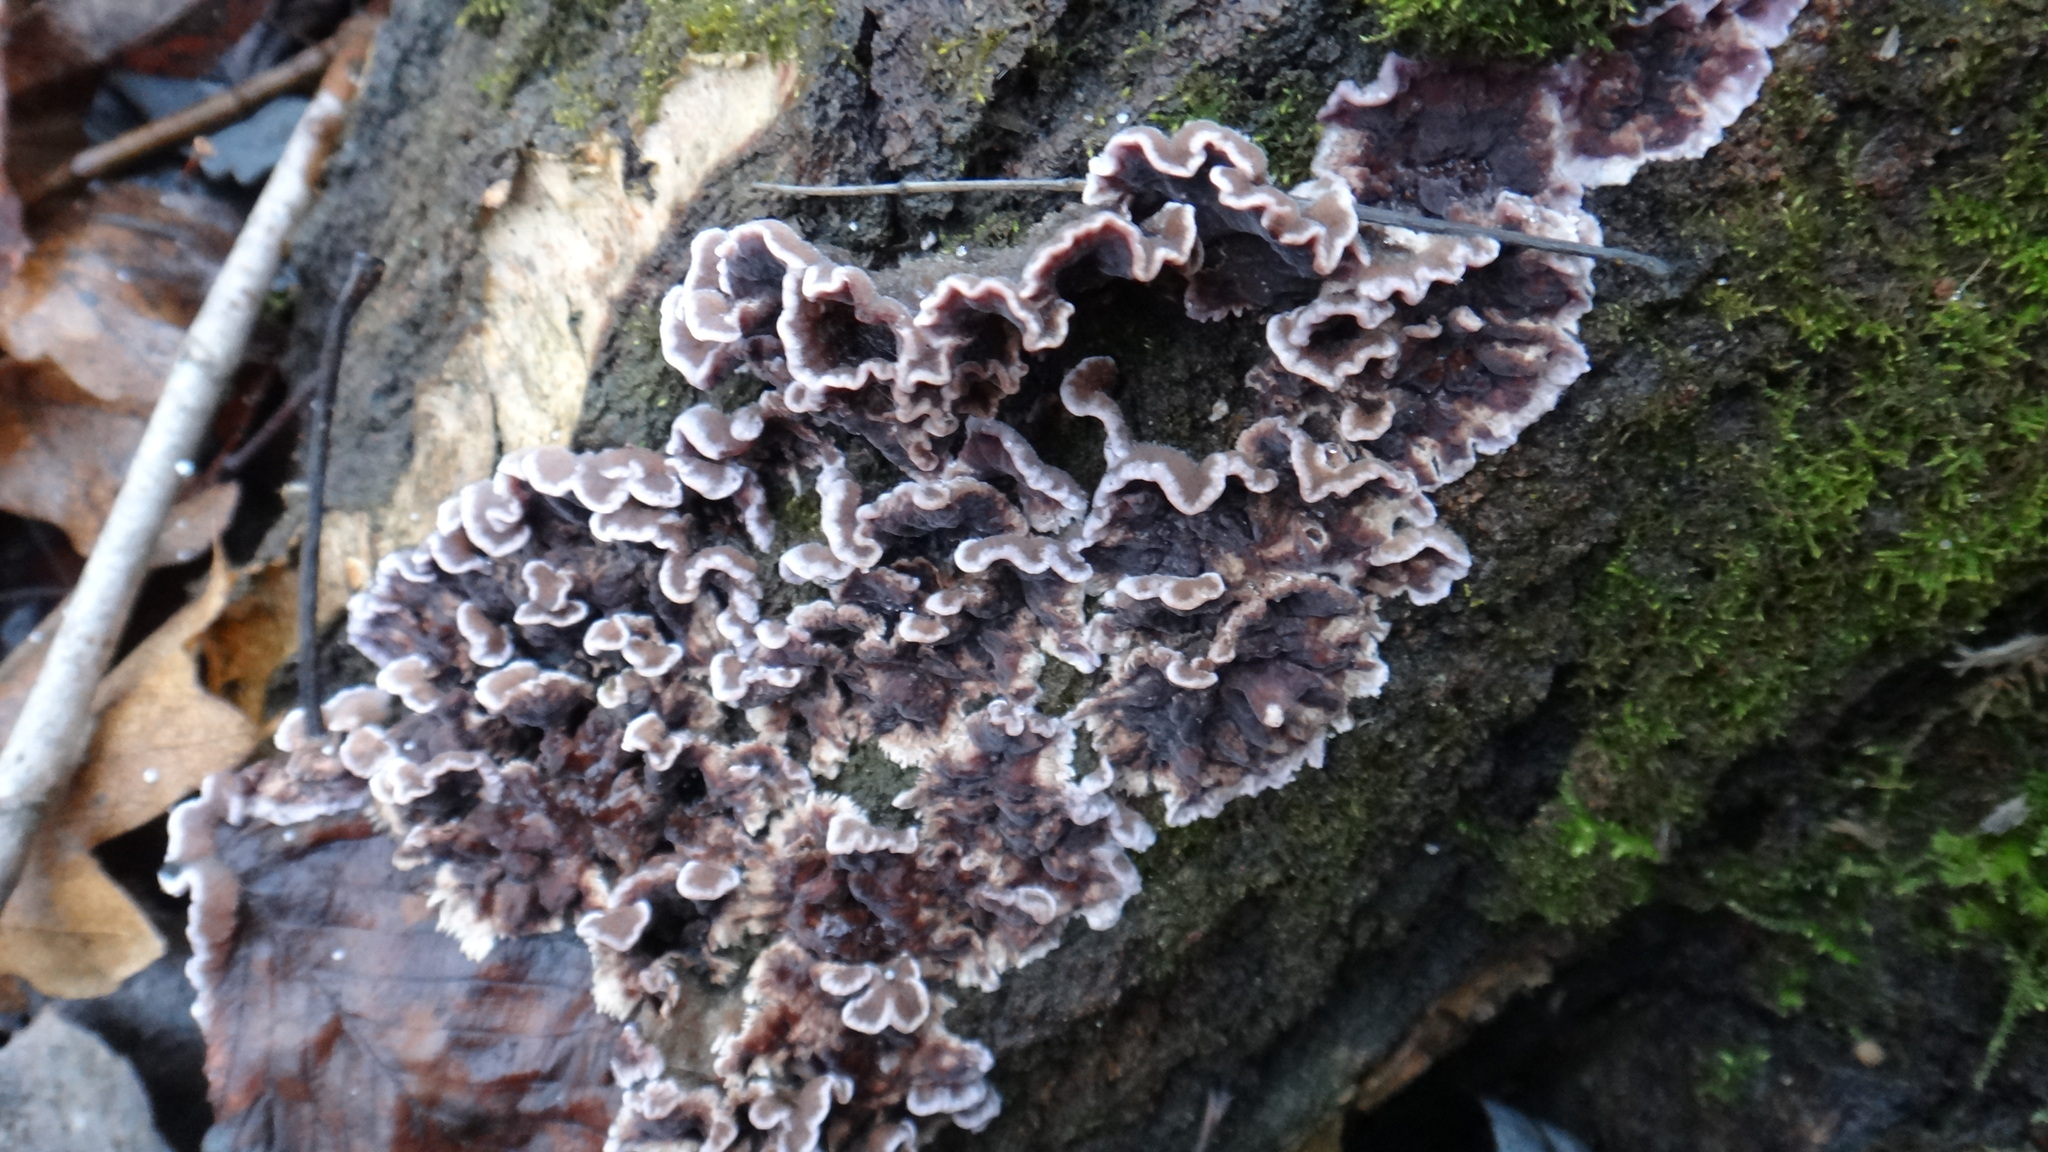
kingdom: Fungi
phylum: Basidiomycota
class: Agaricomycetes
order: Agaricales
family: Cyphellaceae
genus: Chondrostereum
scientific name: Chondrostereum purpureum
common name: Silver leaf disease
